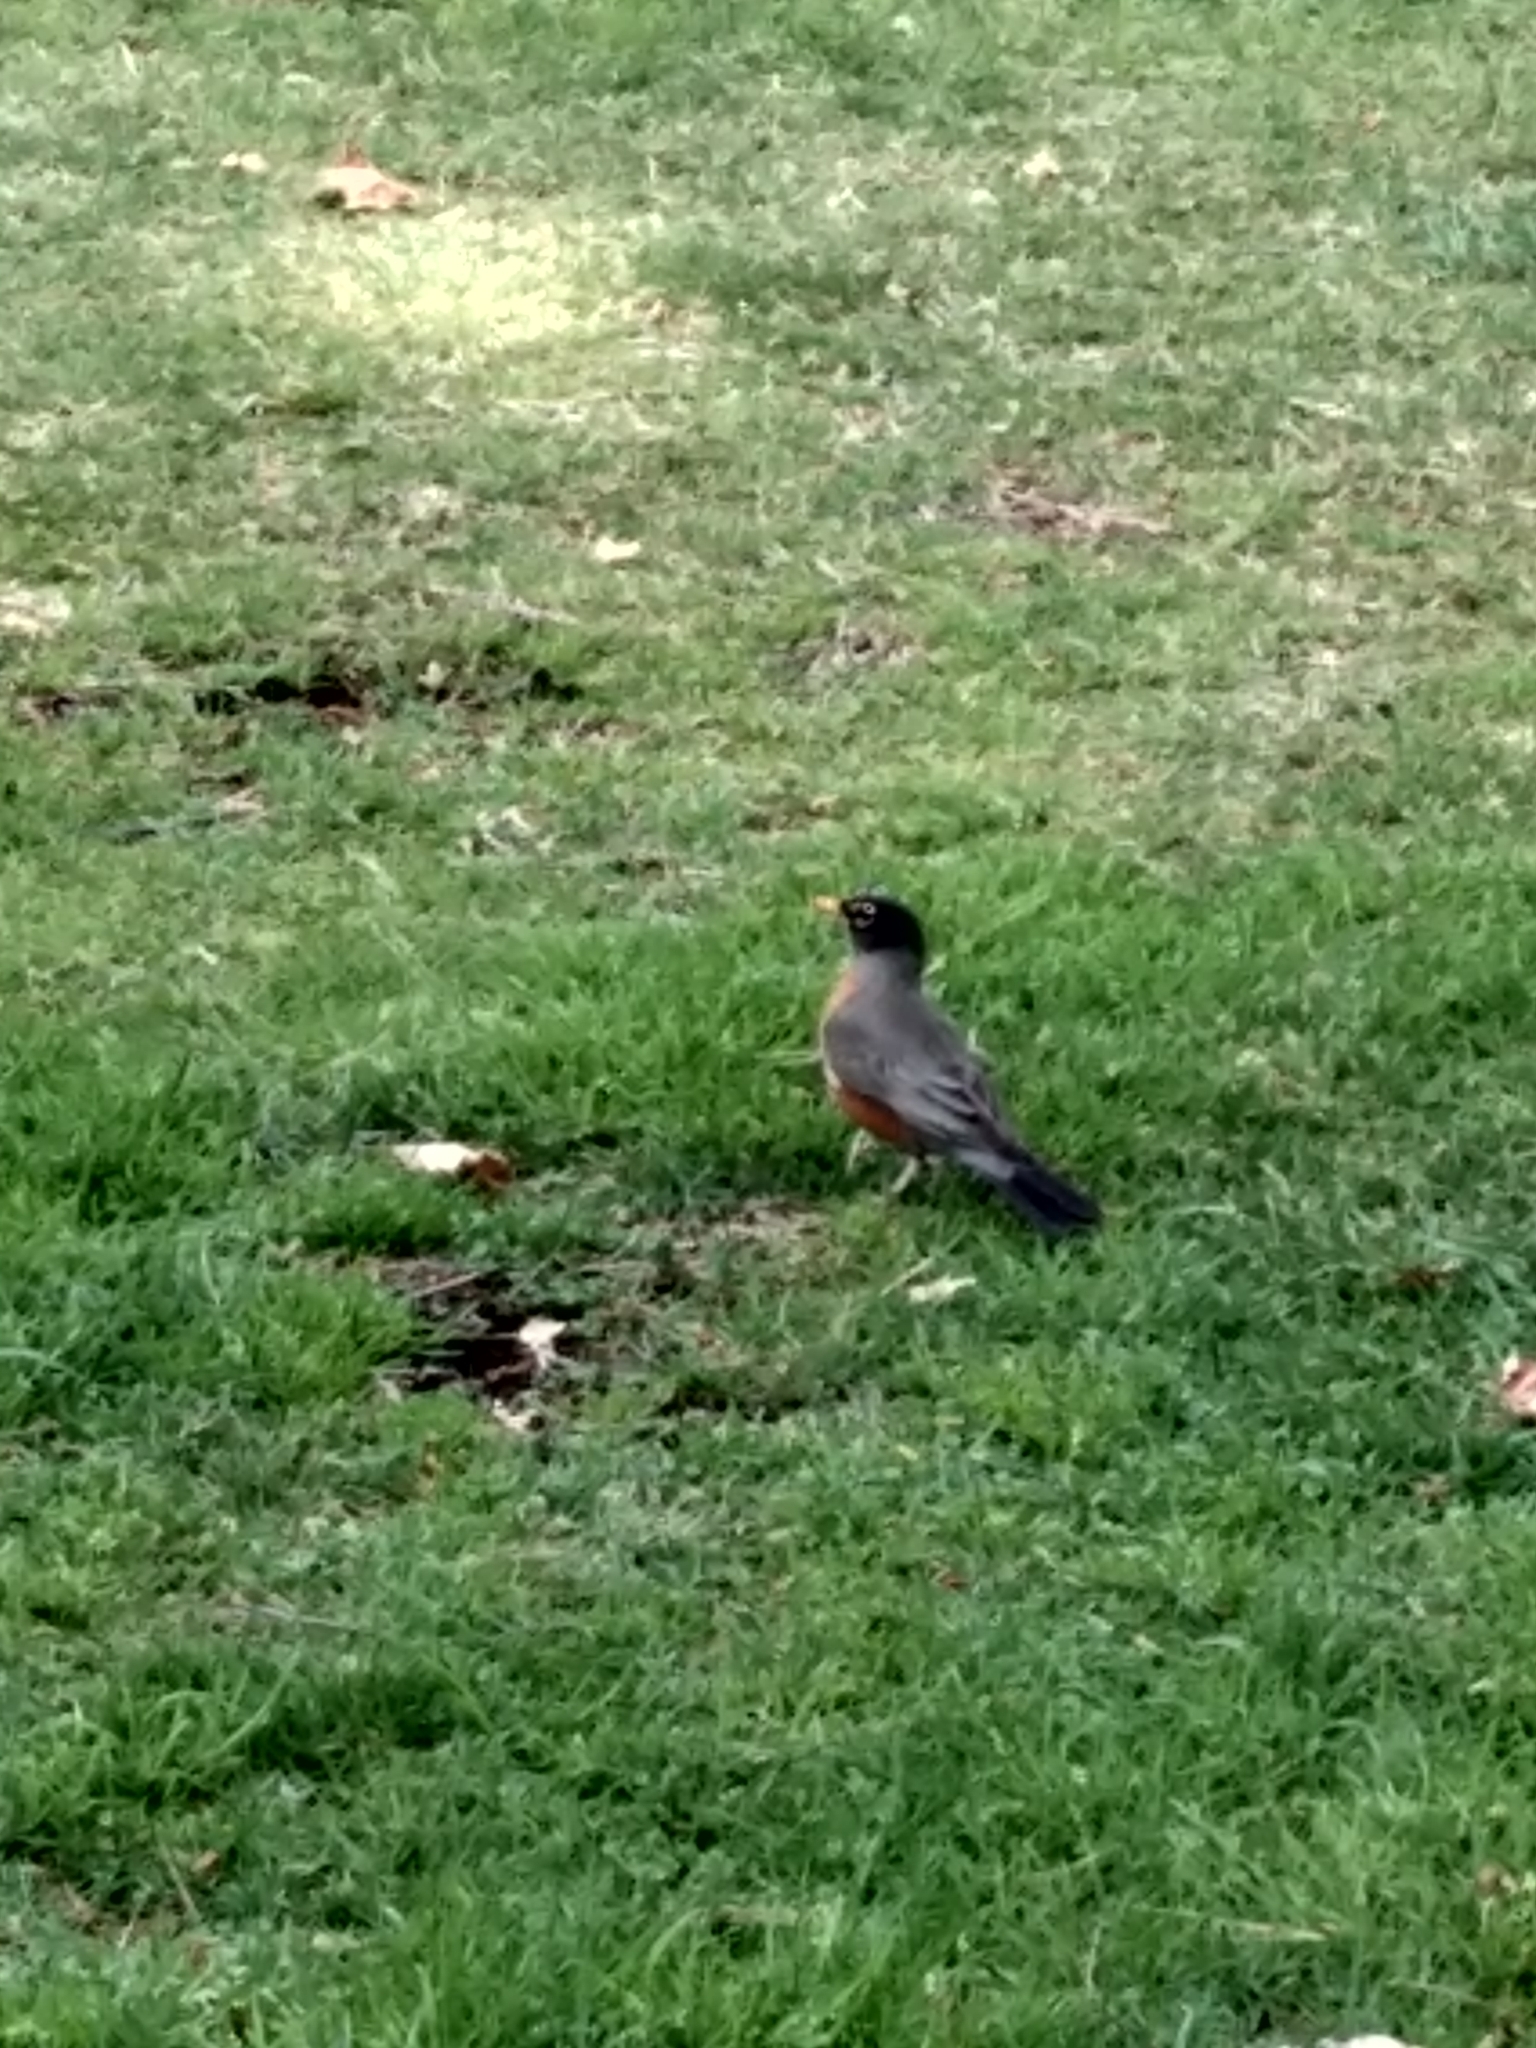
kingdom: Animalia
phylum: Chordata
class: Aves
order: Passeriformes
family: Turdidae
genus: Turdus
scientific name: Turdus migratorius
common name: American robin
